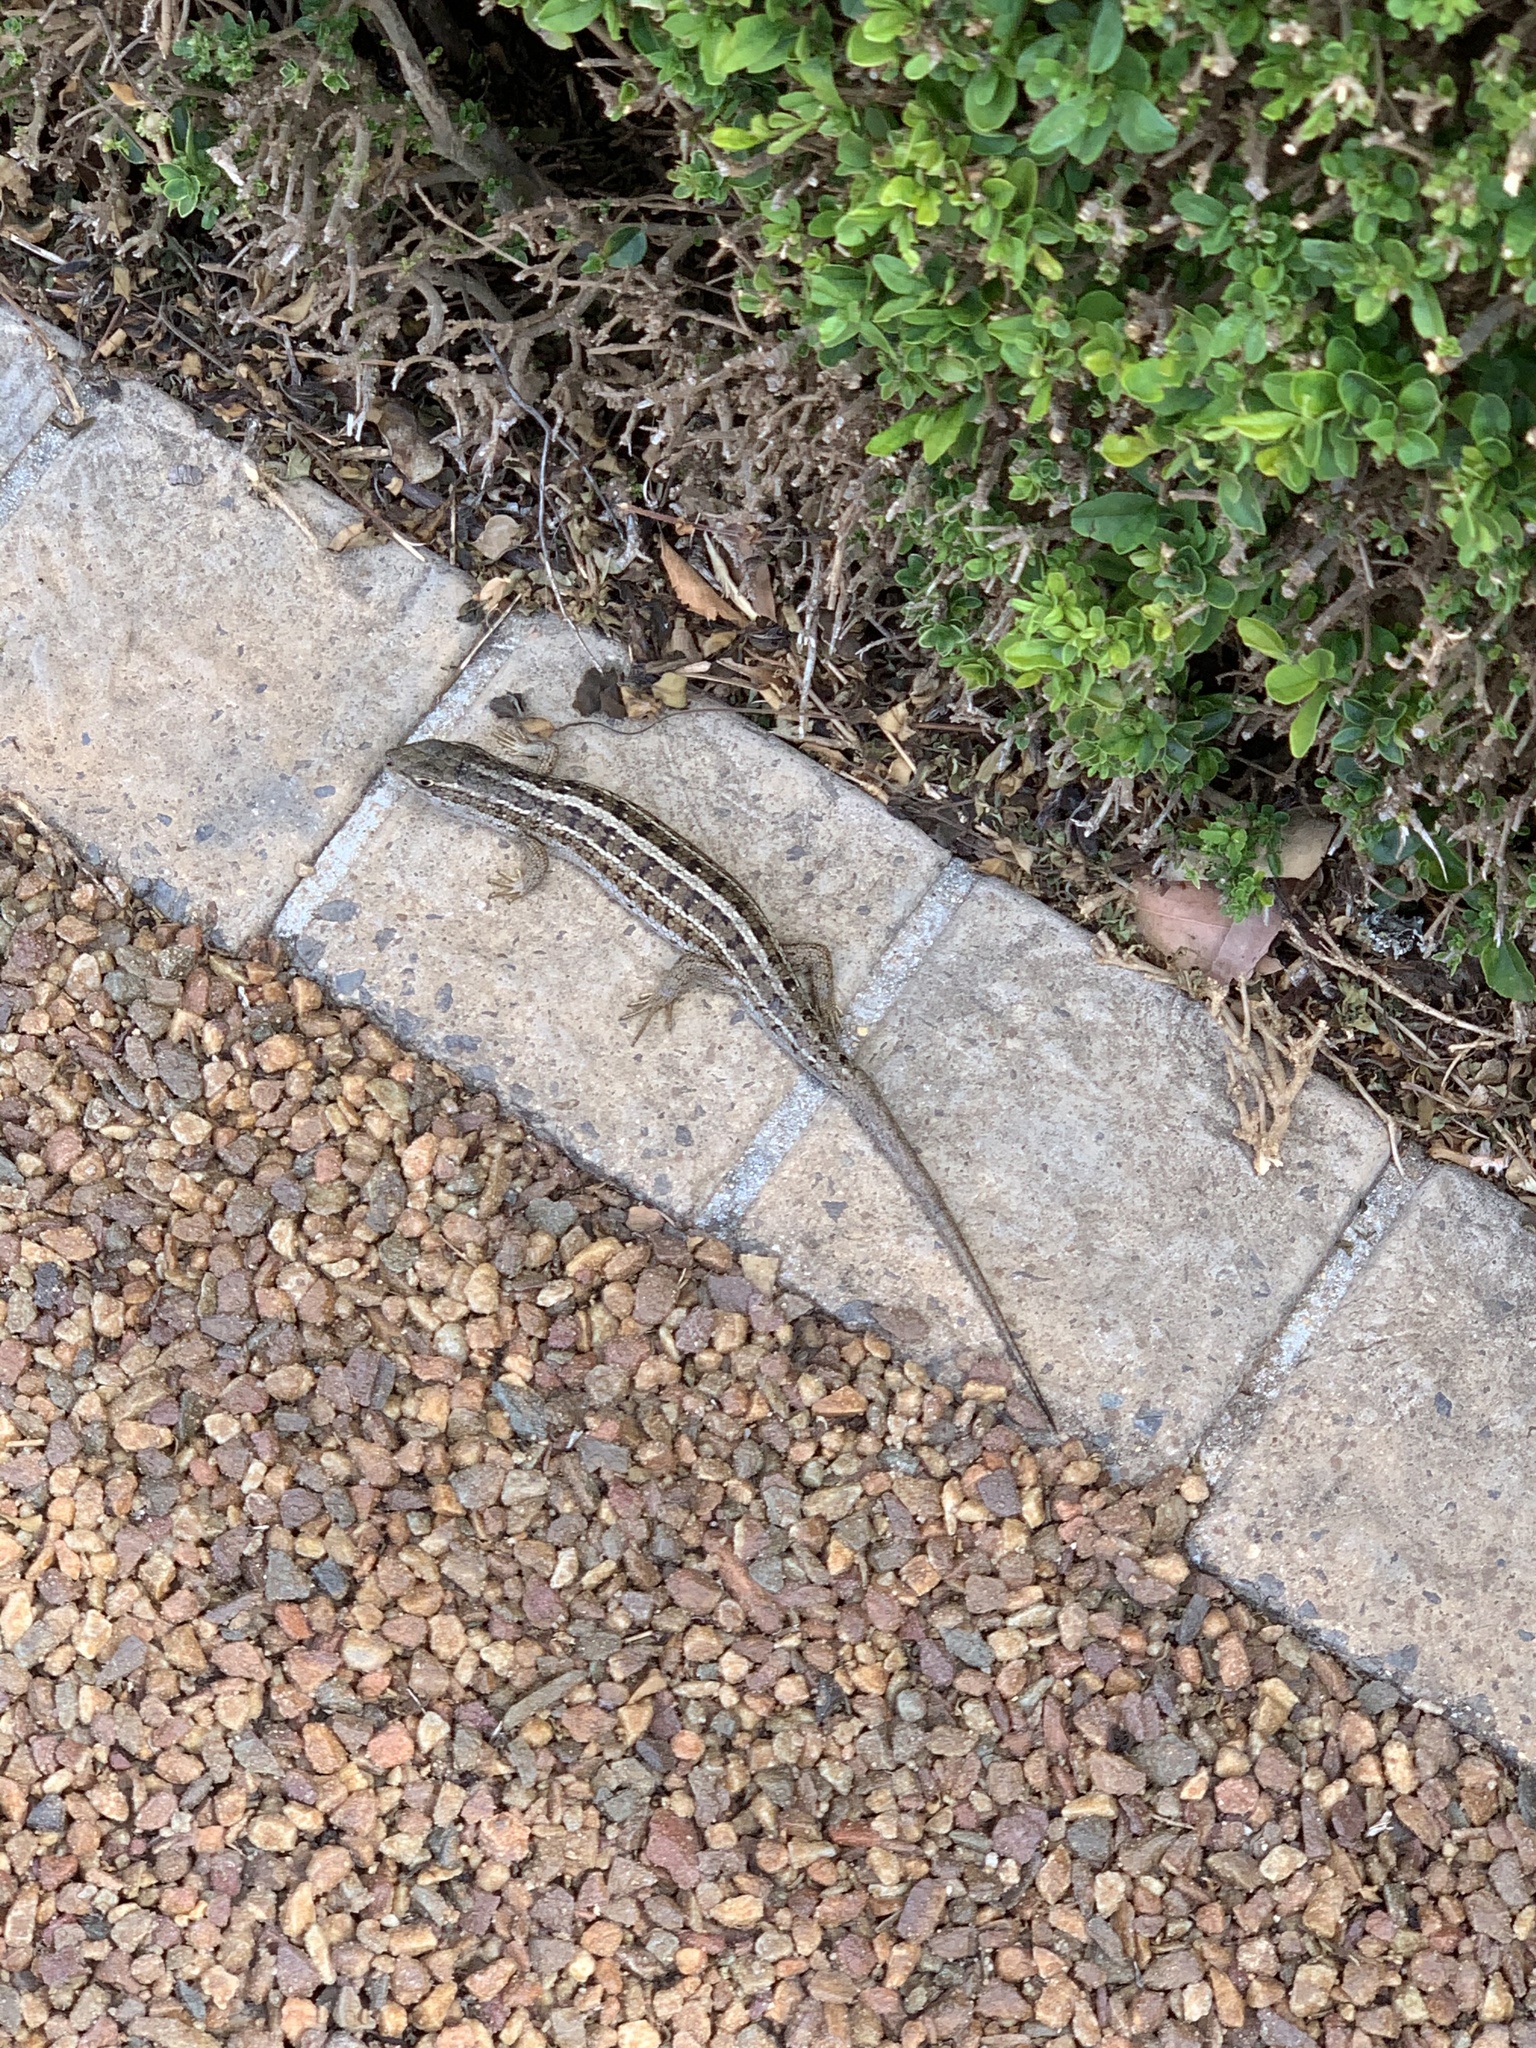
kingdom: Animalia
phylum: Chordata
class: Squamata
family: Scincidae
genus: Trachylepis
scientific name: Trachylepis capensis
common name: Cape skink
